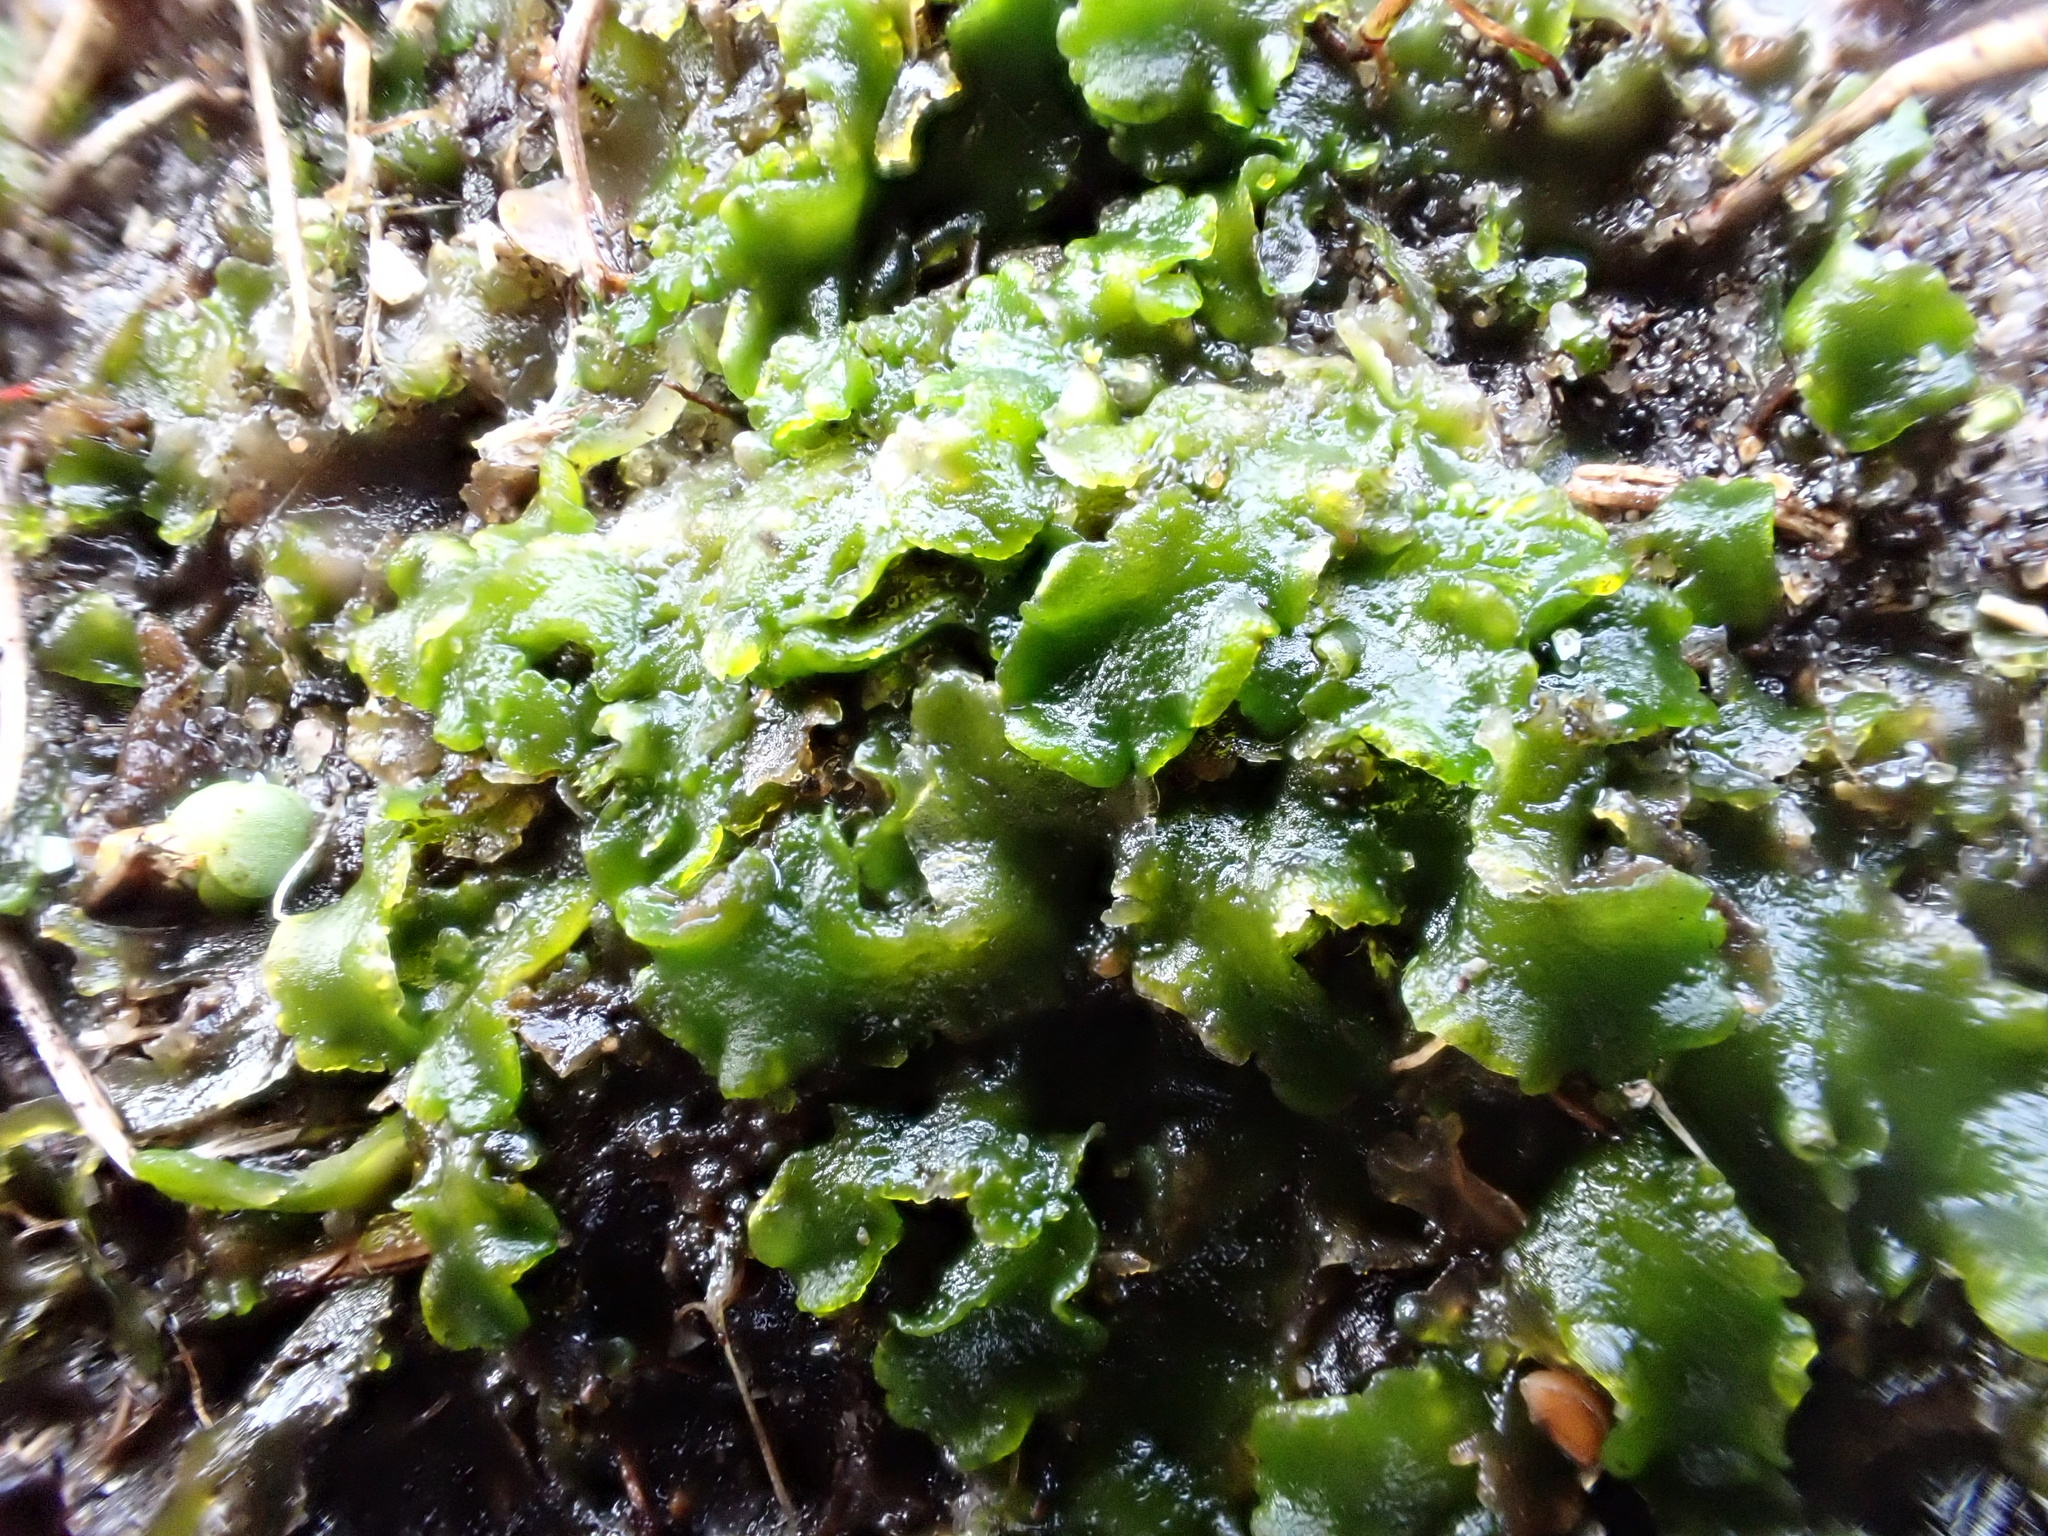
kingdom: Plantae
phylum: Marchantiophyta
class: Jungermanniopsida
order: Metzgeriales
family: Aneuraceae
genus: Aneura
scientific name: Aneura pinguis
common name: Common greasewort
